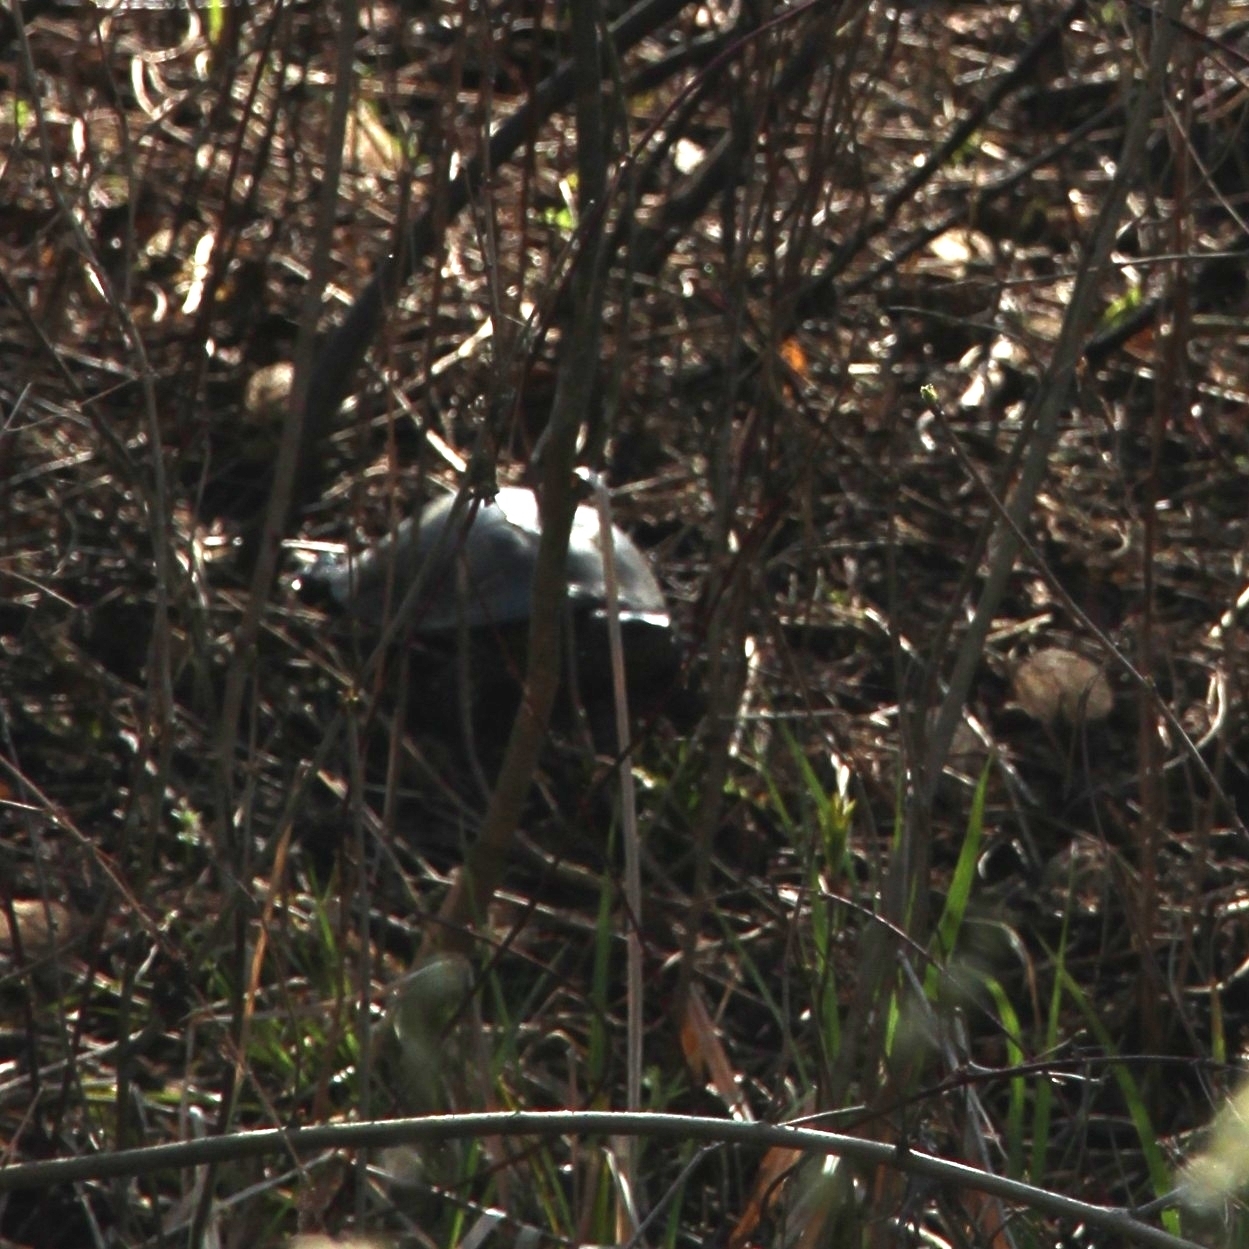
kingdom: Animalia
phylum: Chordata
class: Testudines
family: Emydidae
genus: Emys
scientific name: Emys orbicularis
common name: European pond turtle
